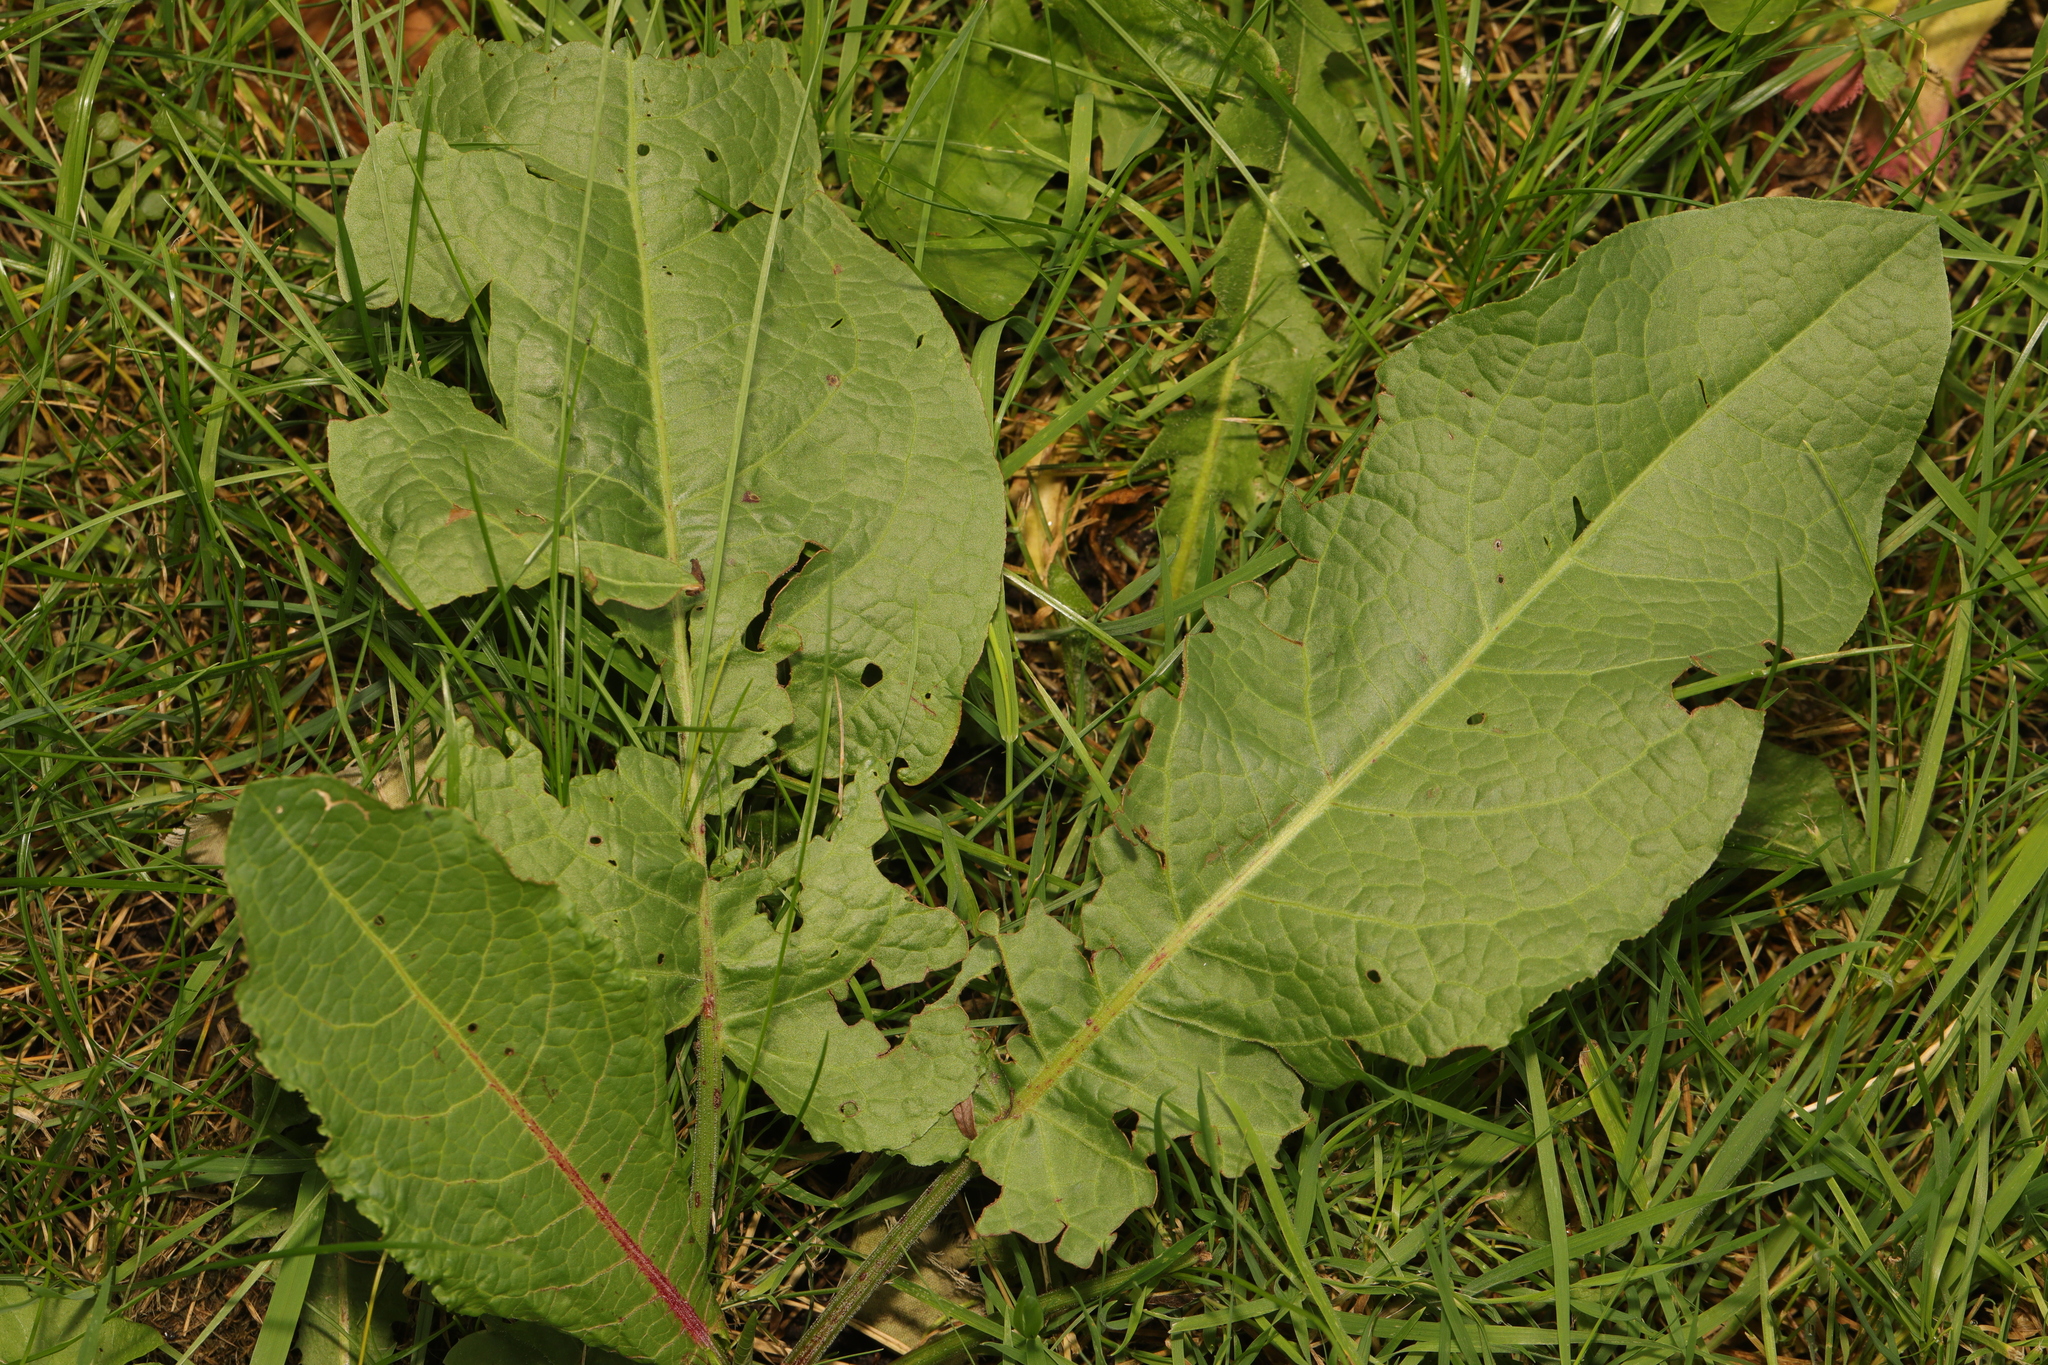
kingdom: Plantae
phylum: Tracheophyta
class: Magnoliopsida
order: Caryophyllales
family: Polygonaceae
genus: Rumex
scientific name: Rumex obtusifolius
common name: Bitter dock
